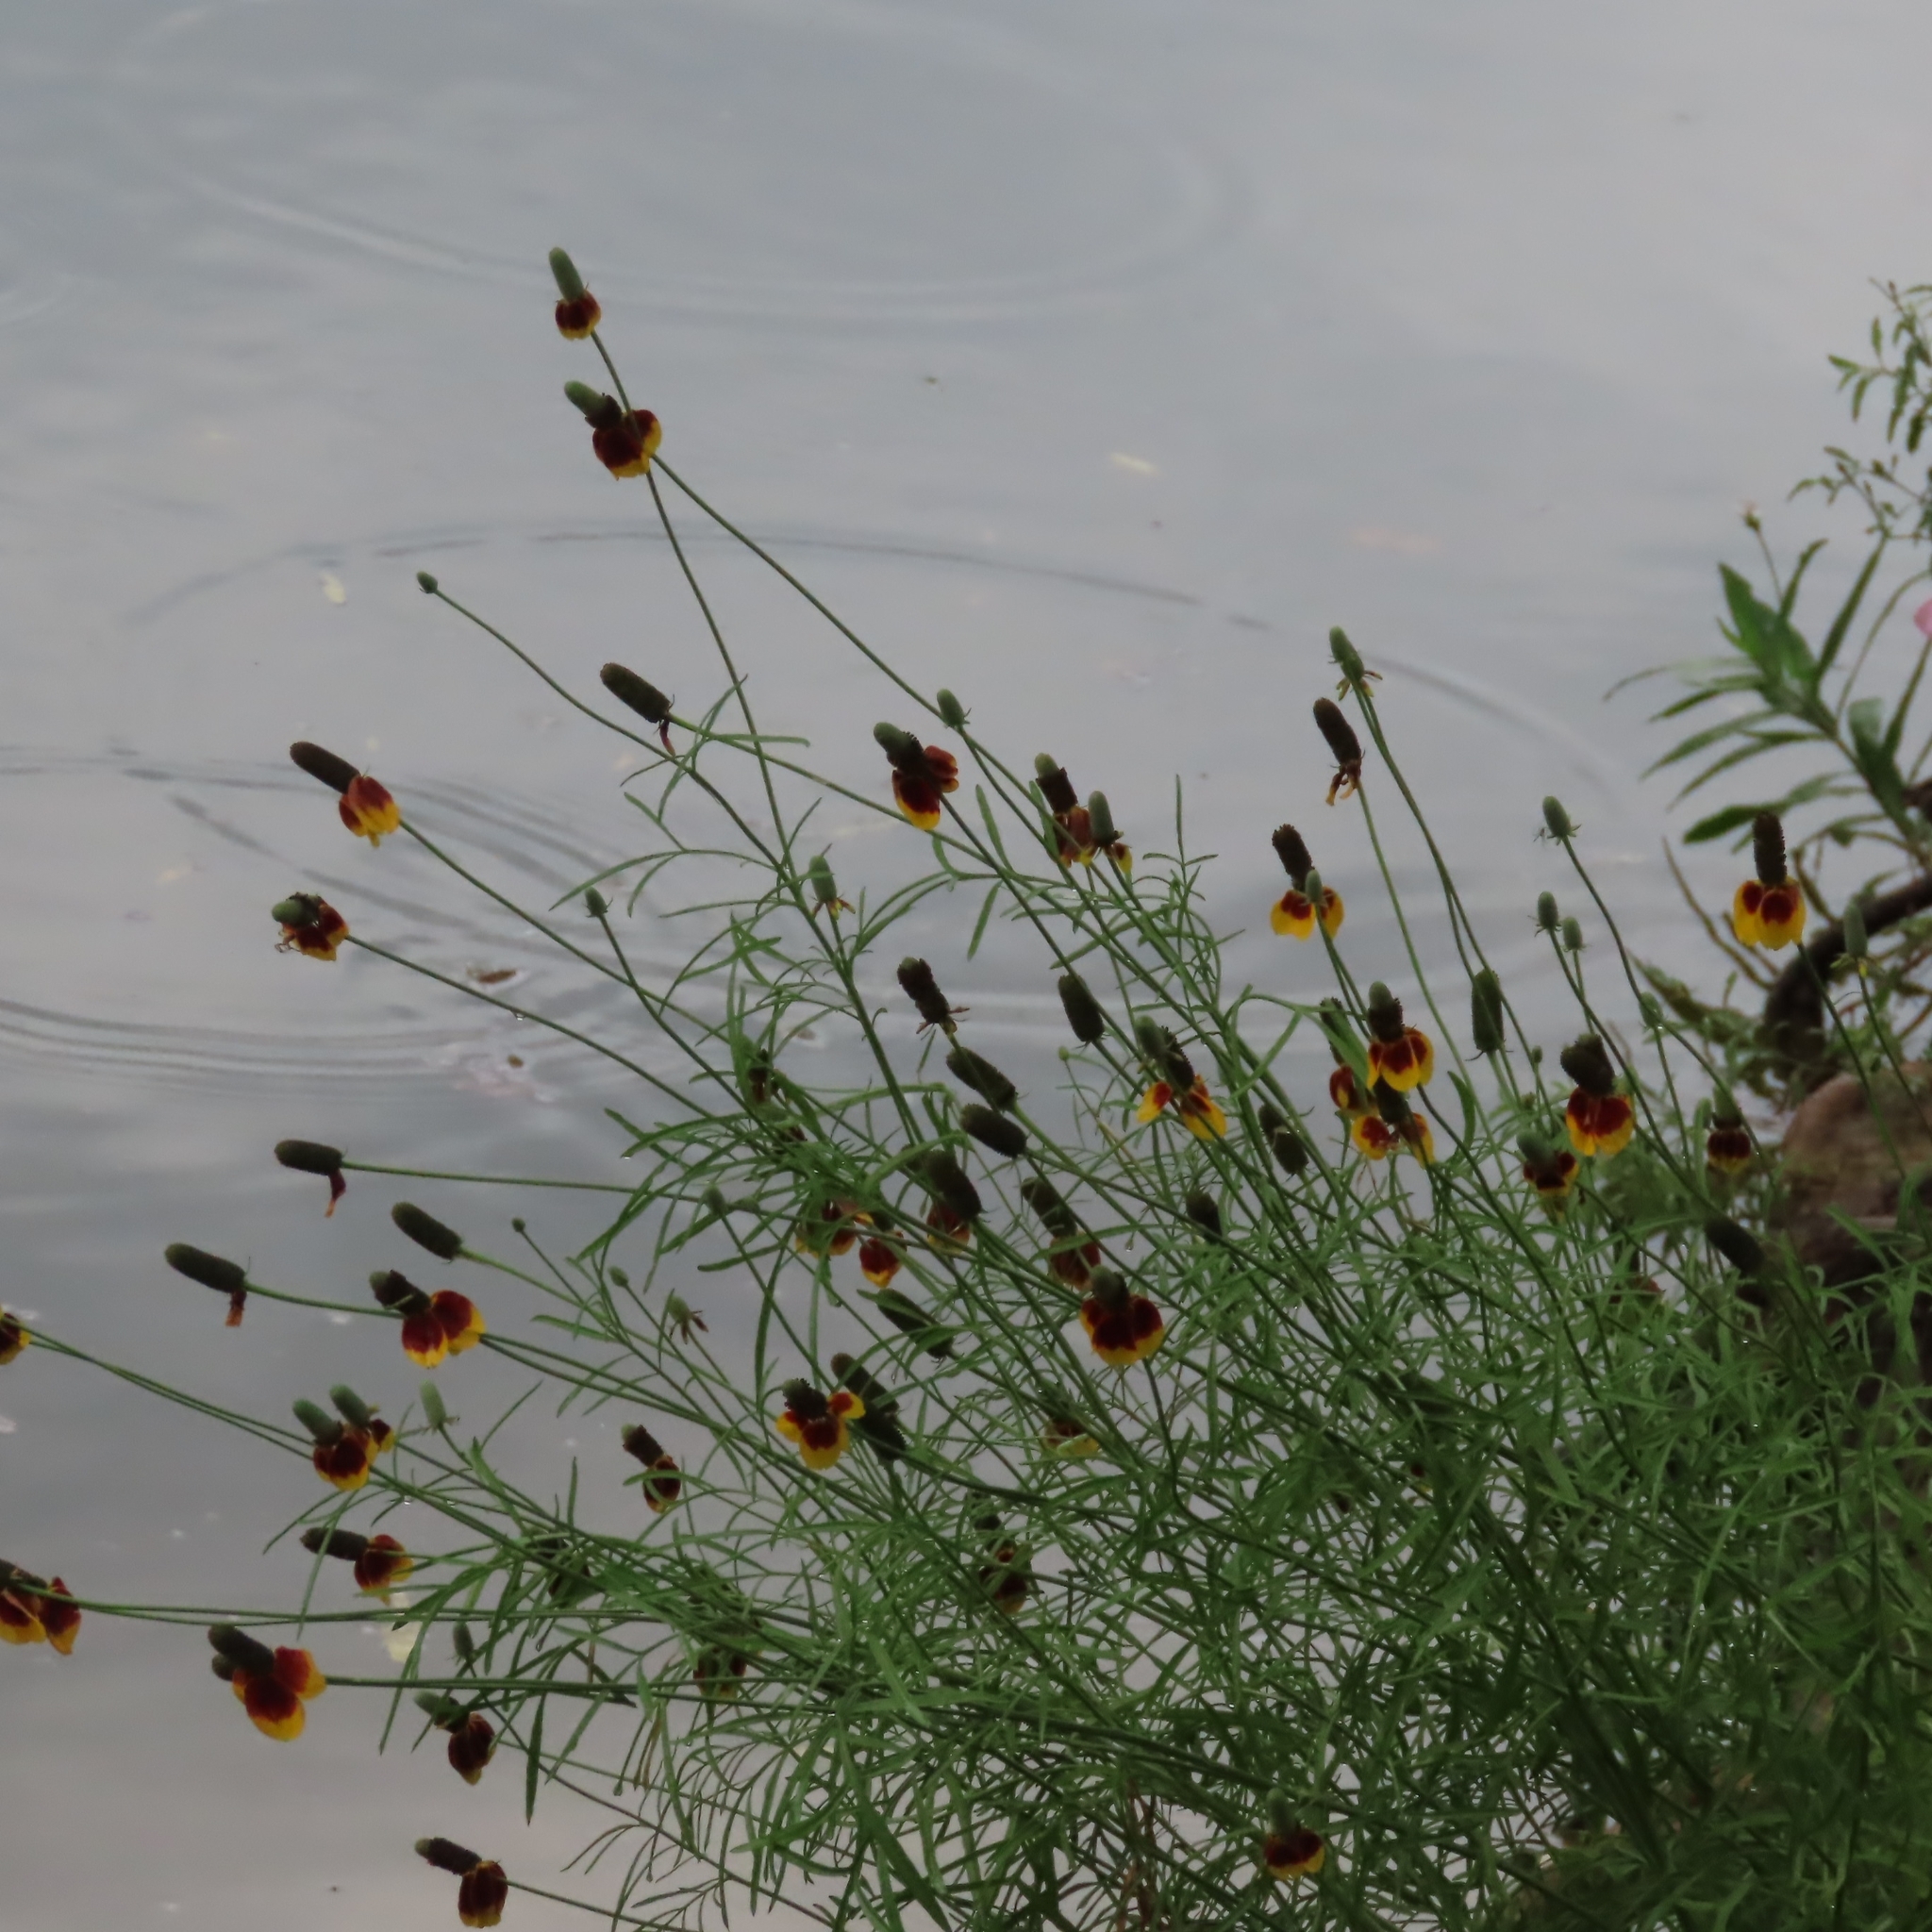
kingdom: Plantae
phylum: Tracheophyta
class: Magnoliopsida
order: Asterales
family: Asteraceae
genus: Ratibida
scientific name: Ratibida columnifera
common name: Prairie coneflower
